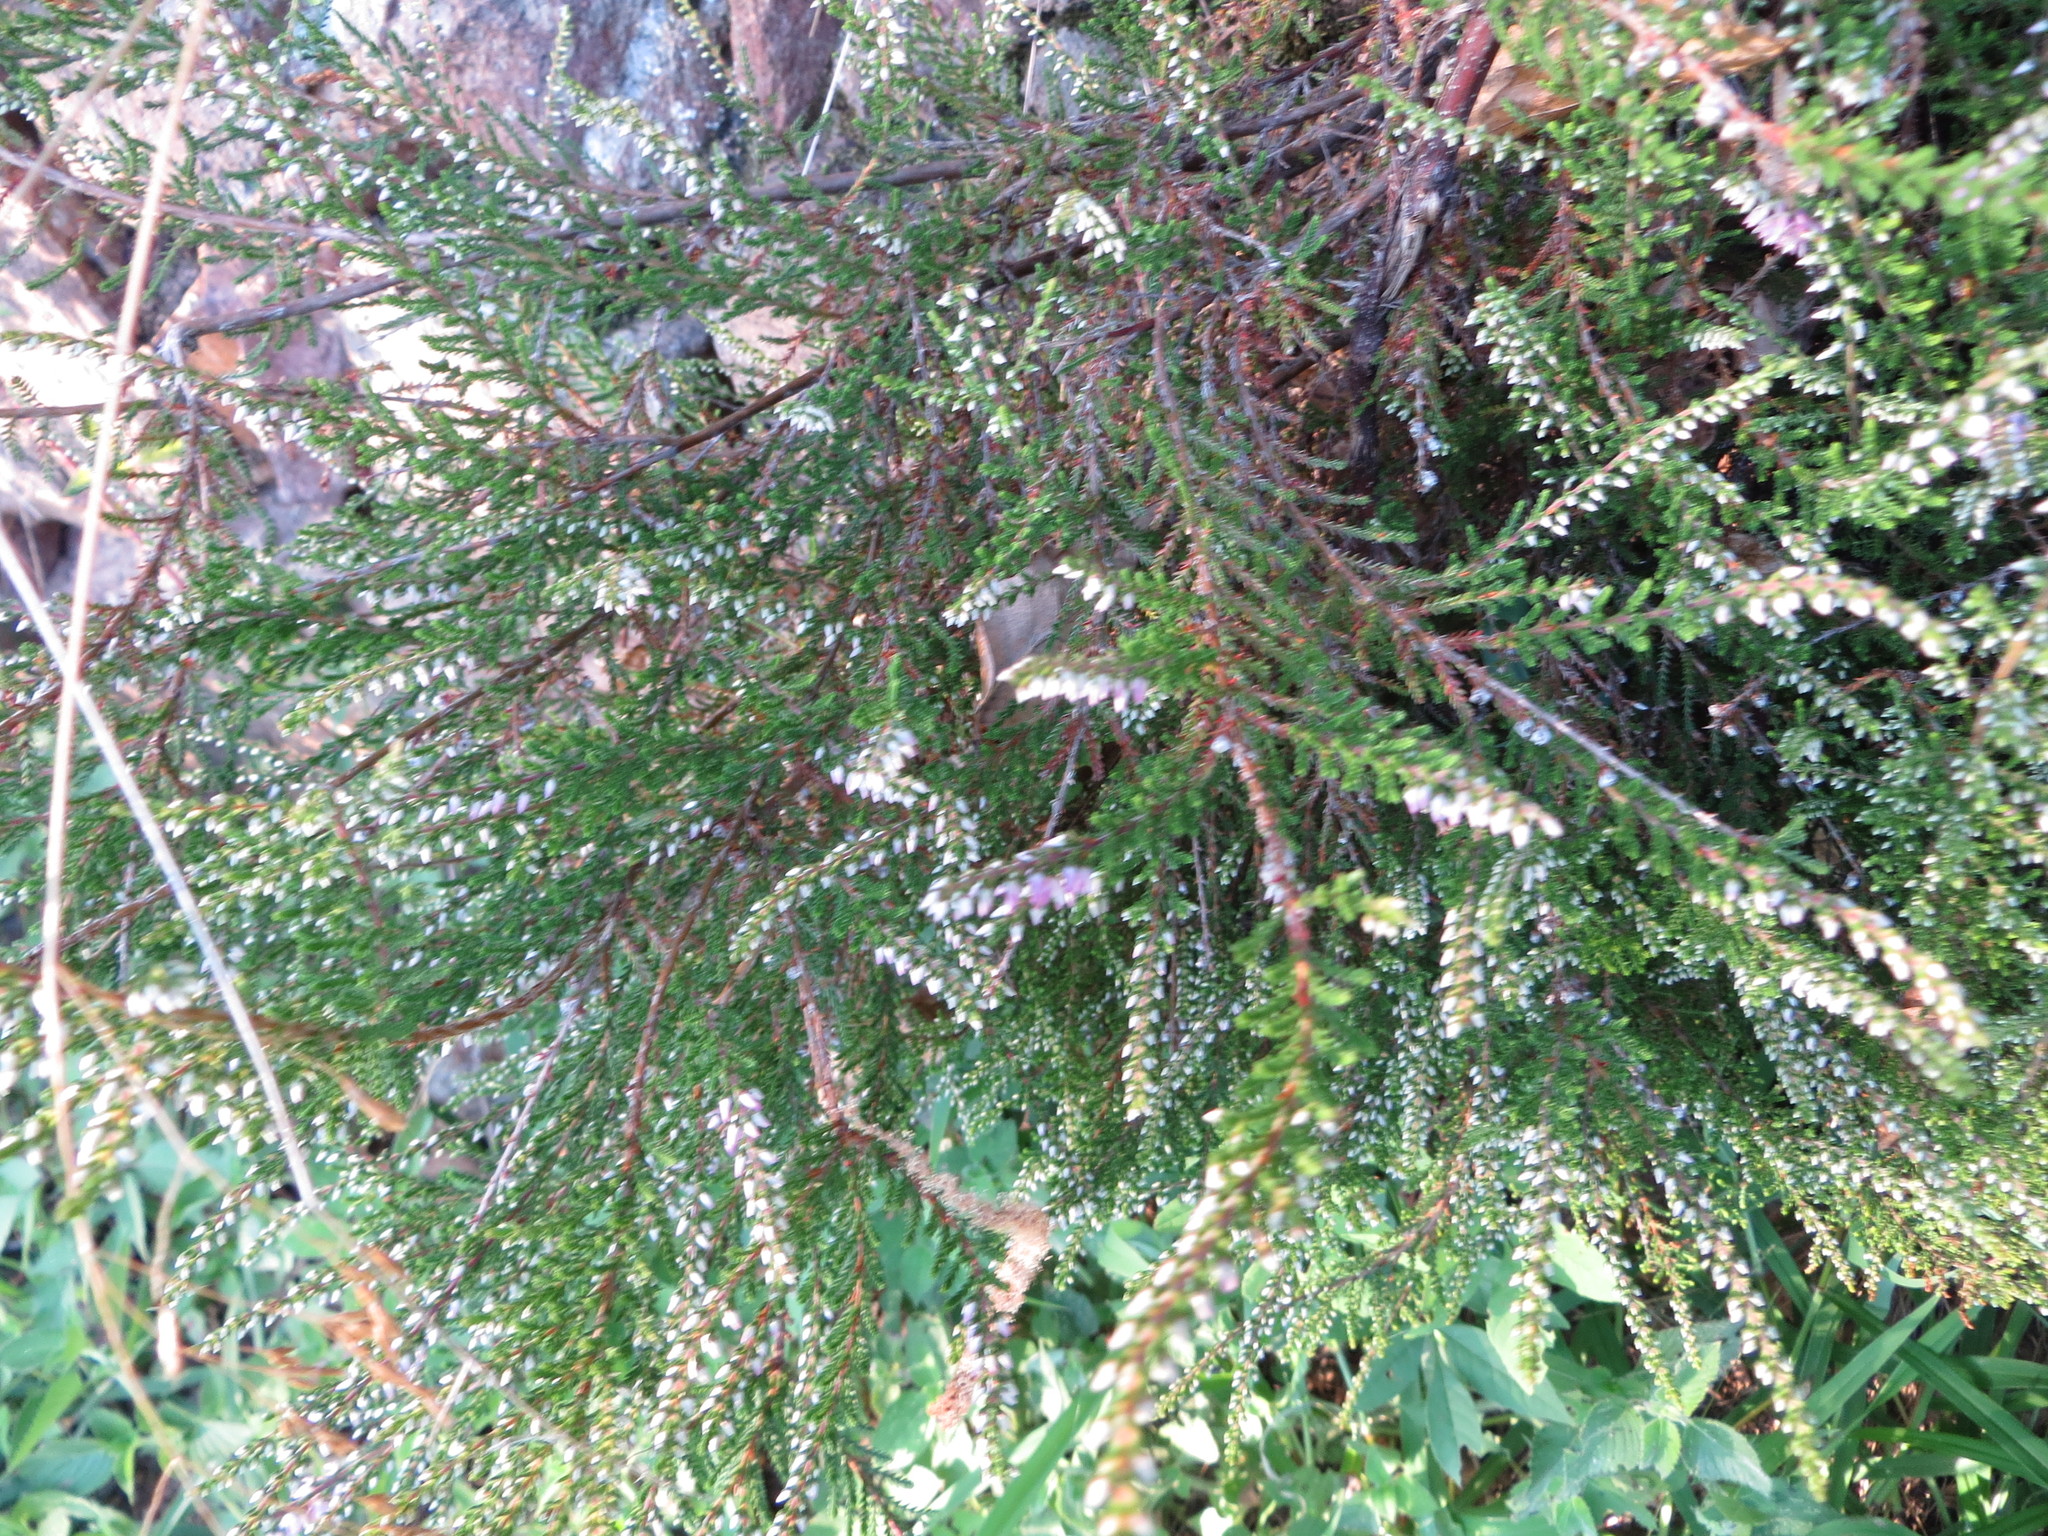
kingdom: Plantae
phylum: Tracheophyta
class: Magnoliopsida
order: Ericales
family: Ericaceae
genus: Calluna
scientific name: Calluna vulgaris
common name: Heather
